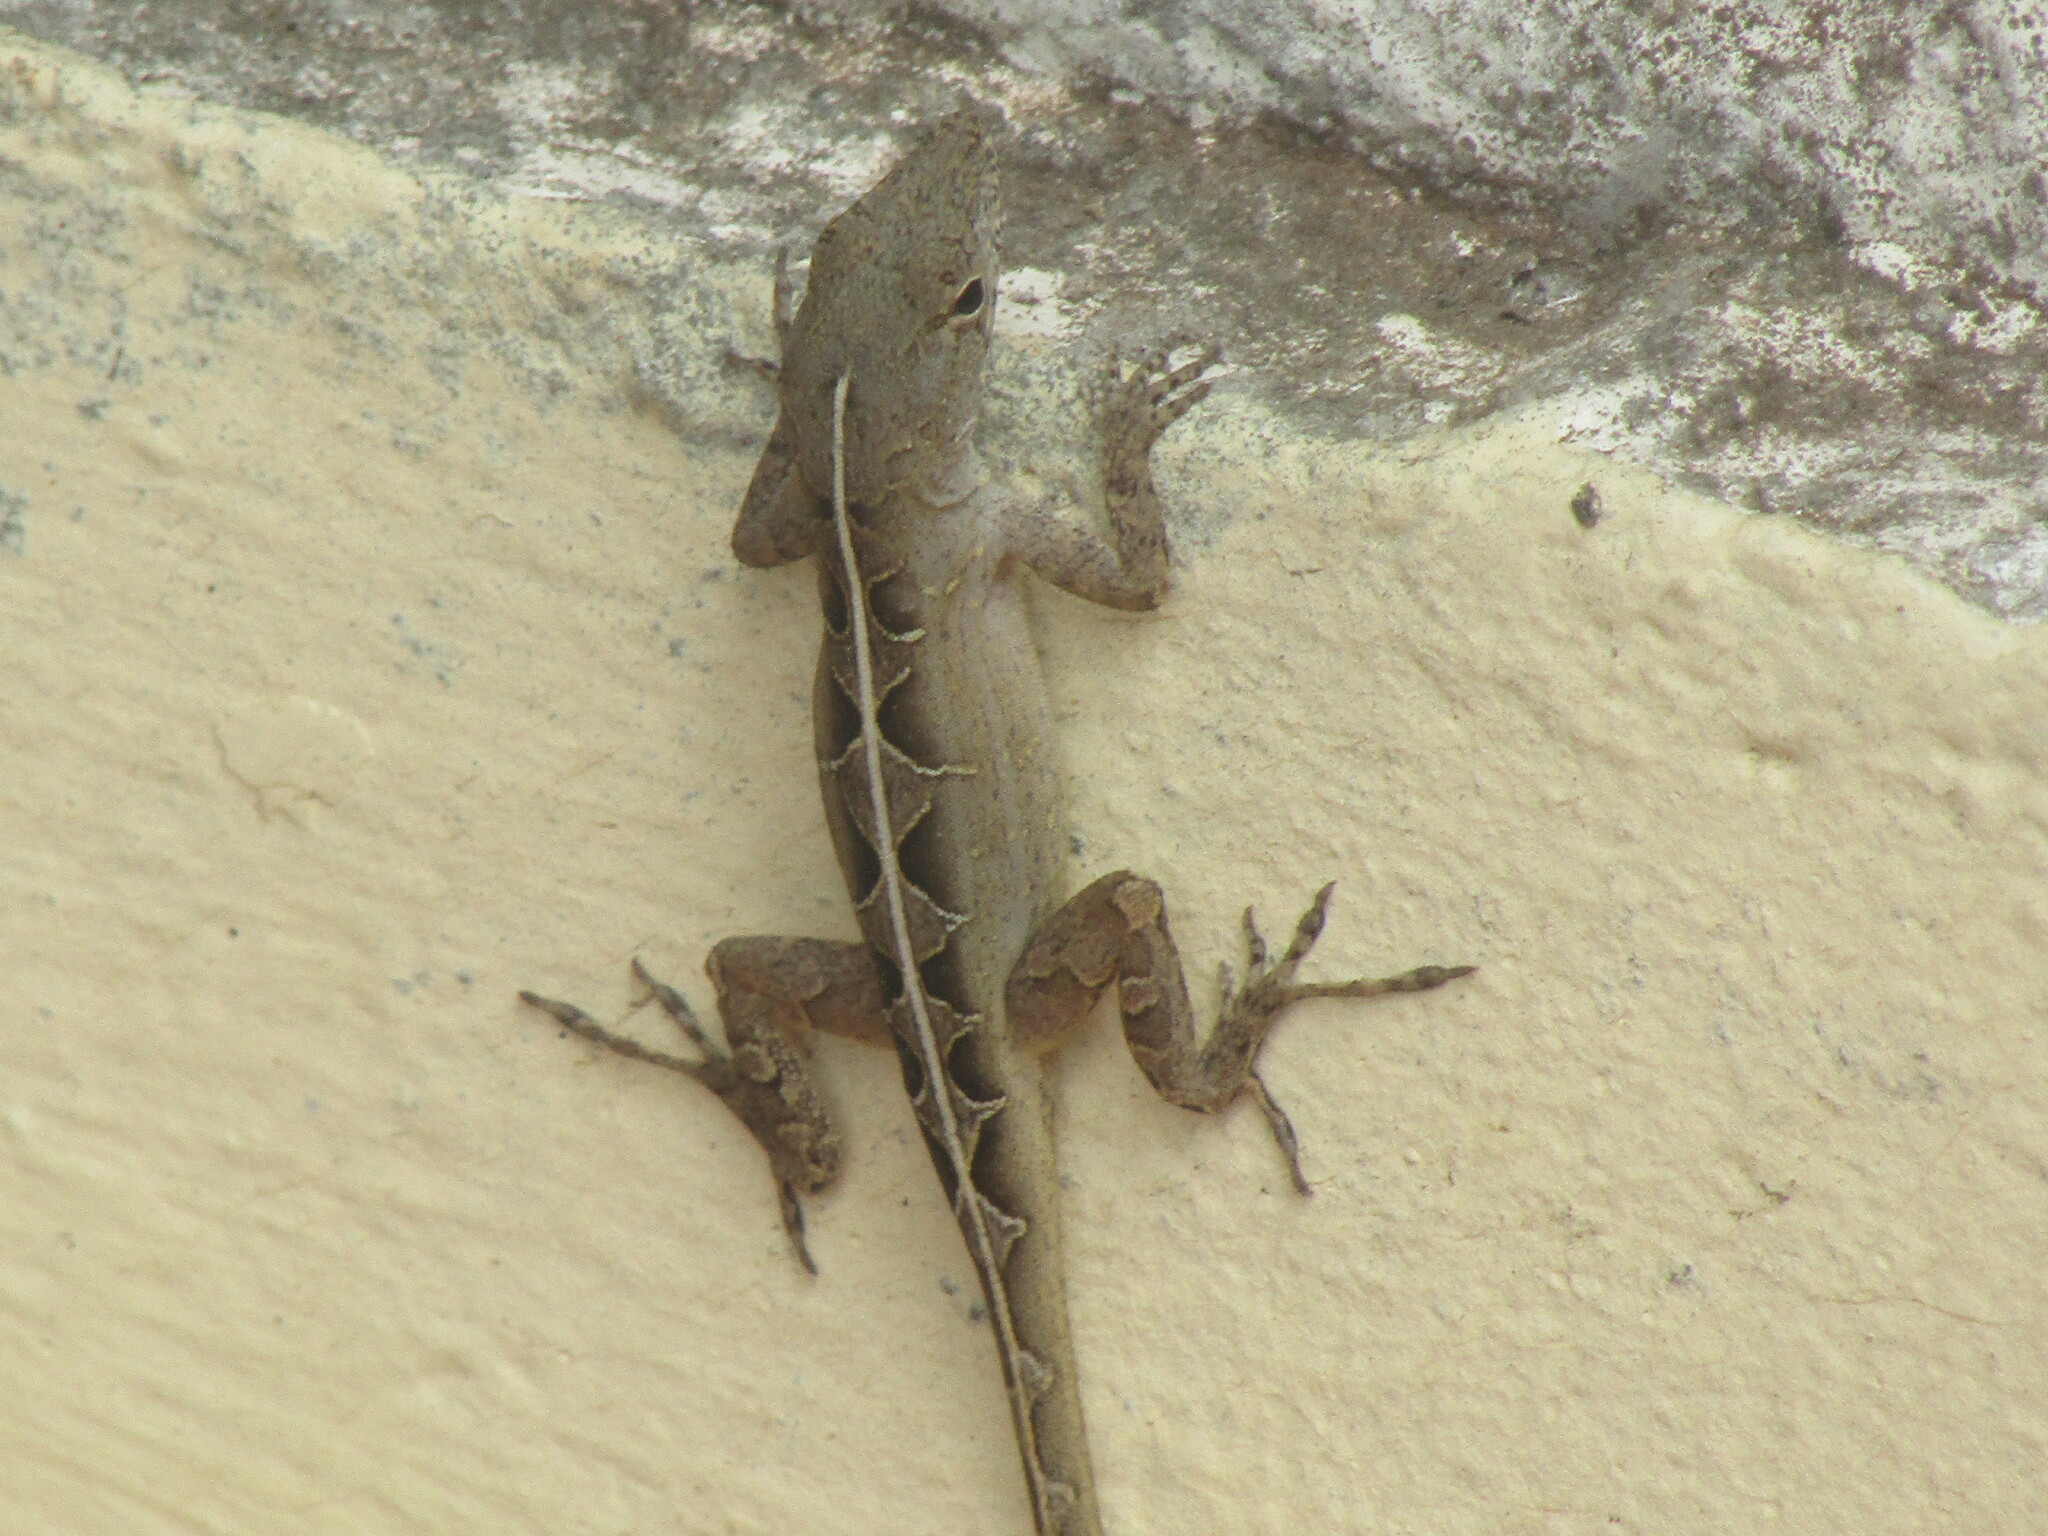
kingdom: Animalia
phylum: Chordata
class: Squamata
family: Dactyloidae
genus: Anolis
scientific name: Anolis sagrei
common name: Brown anole
